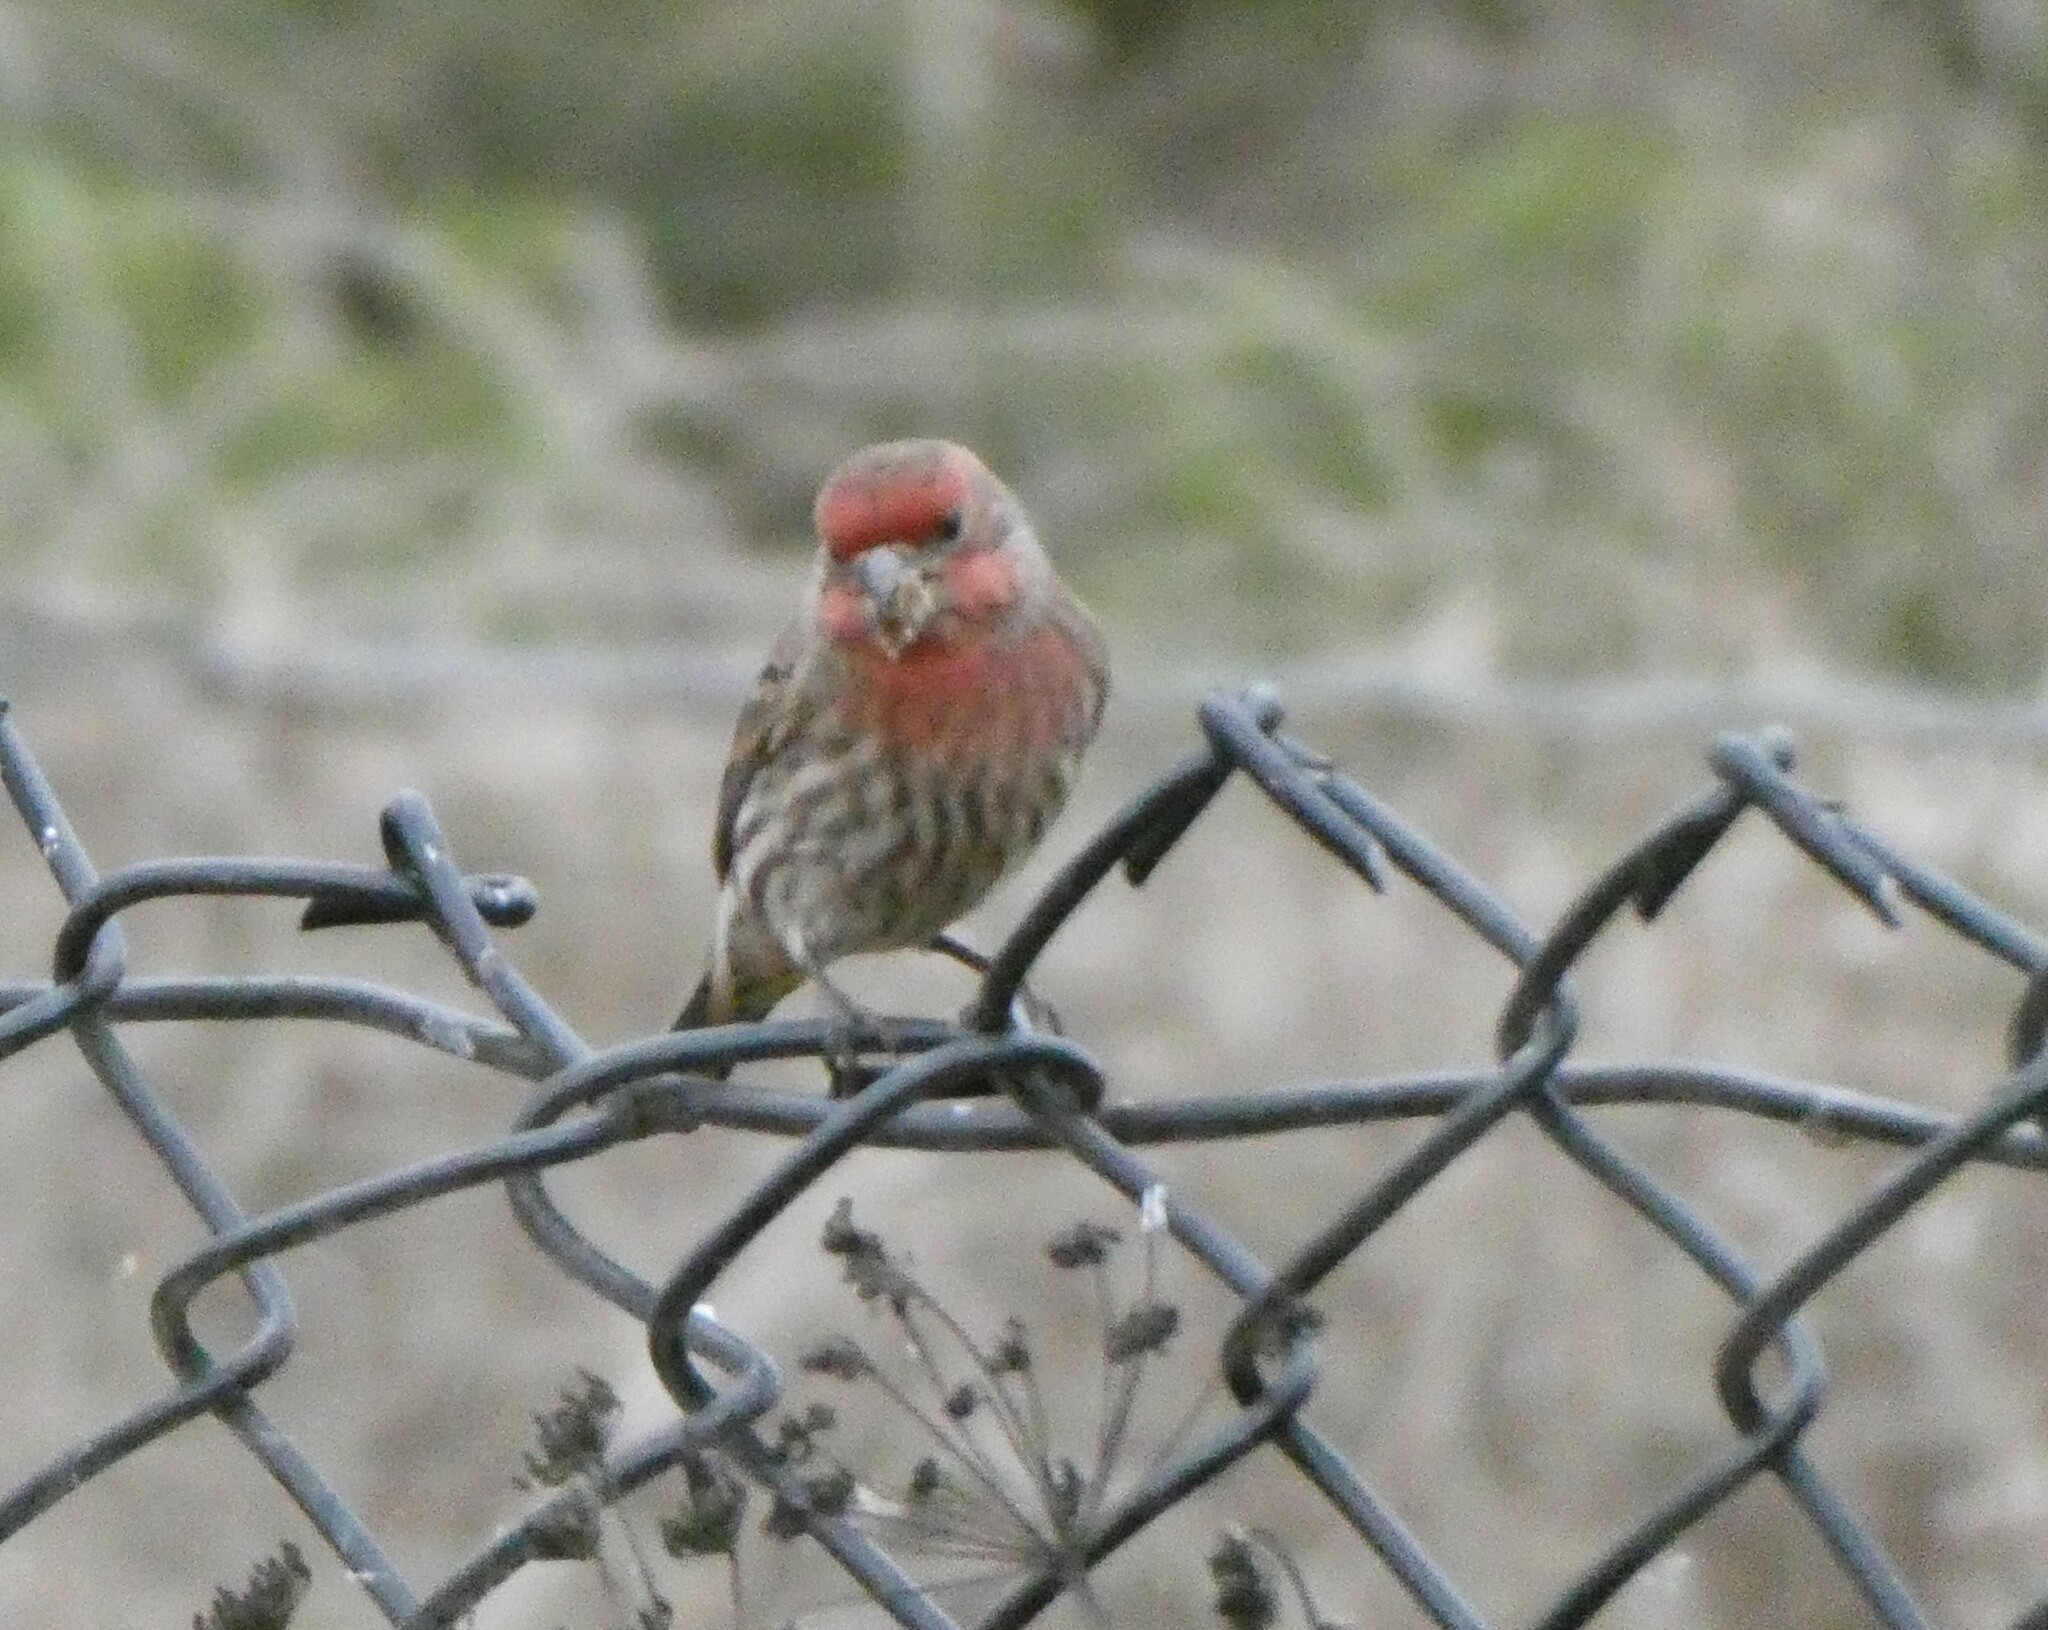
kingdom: Animalia
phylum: Chordata
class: Aves
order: Passeriformes
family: Fringillidae
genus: Haemorhous
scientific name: Haemorhous mexicanus
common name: House finch
